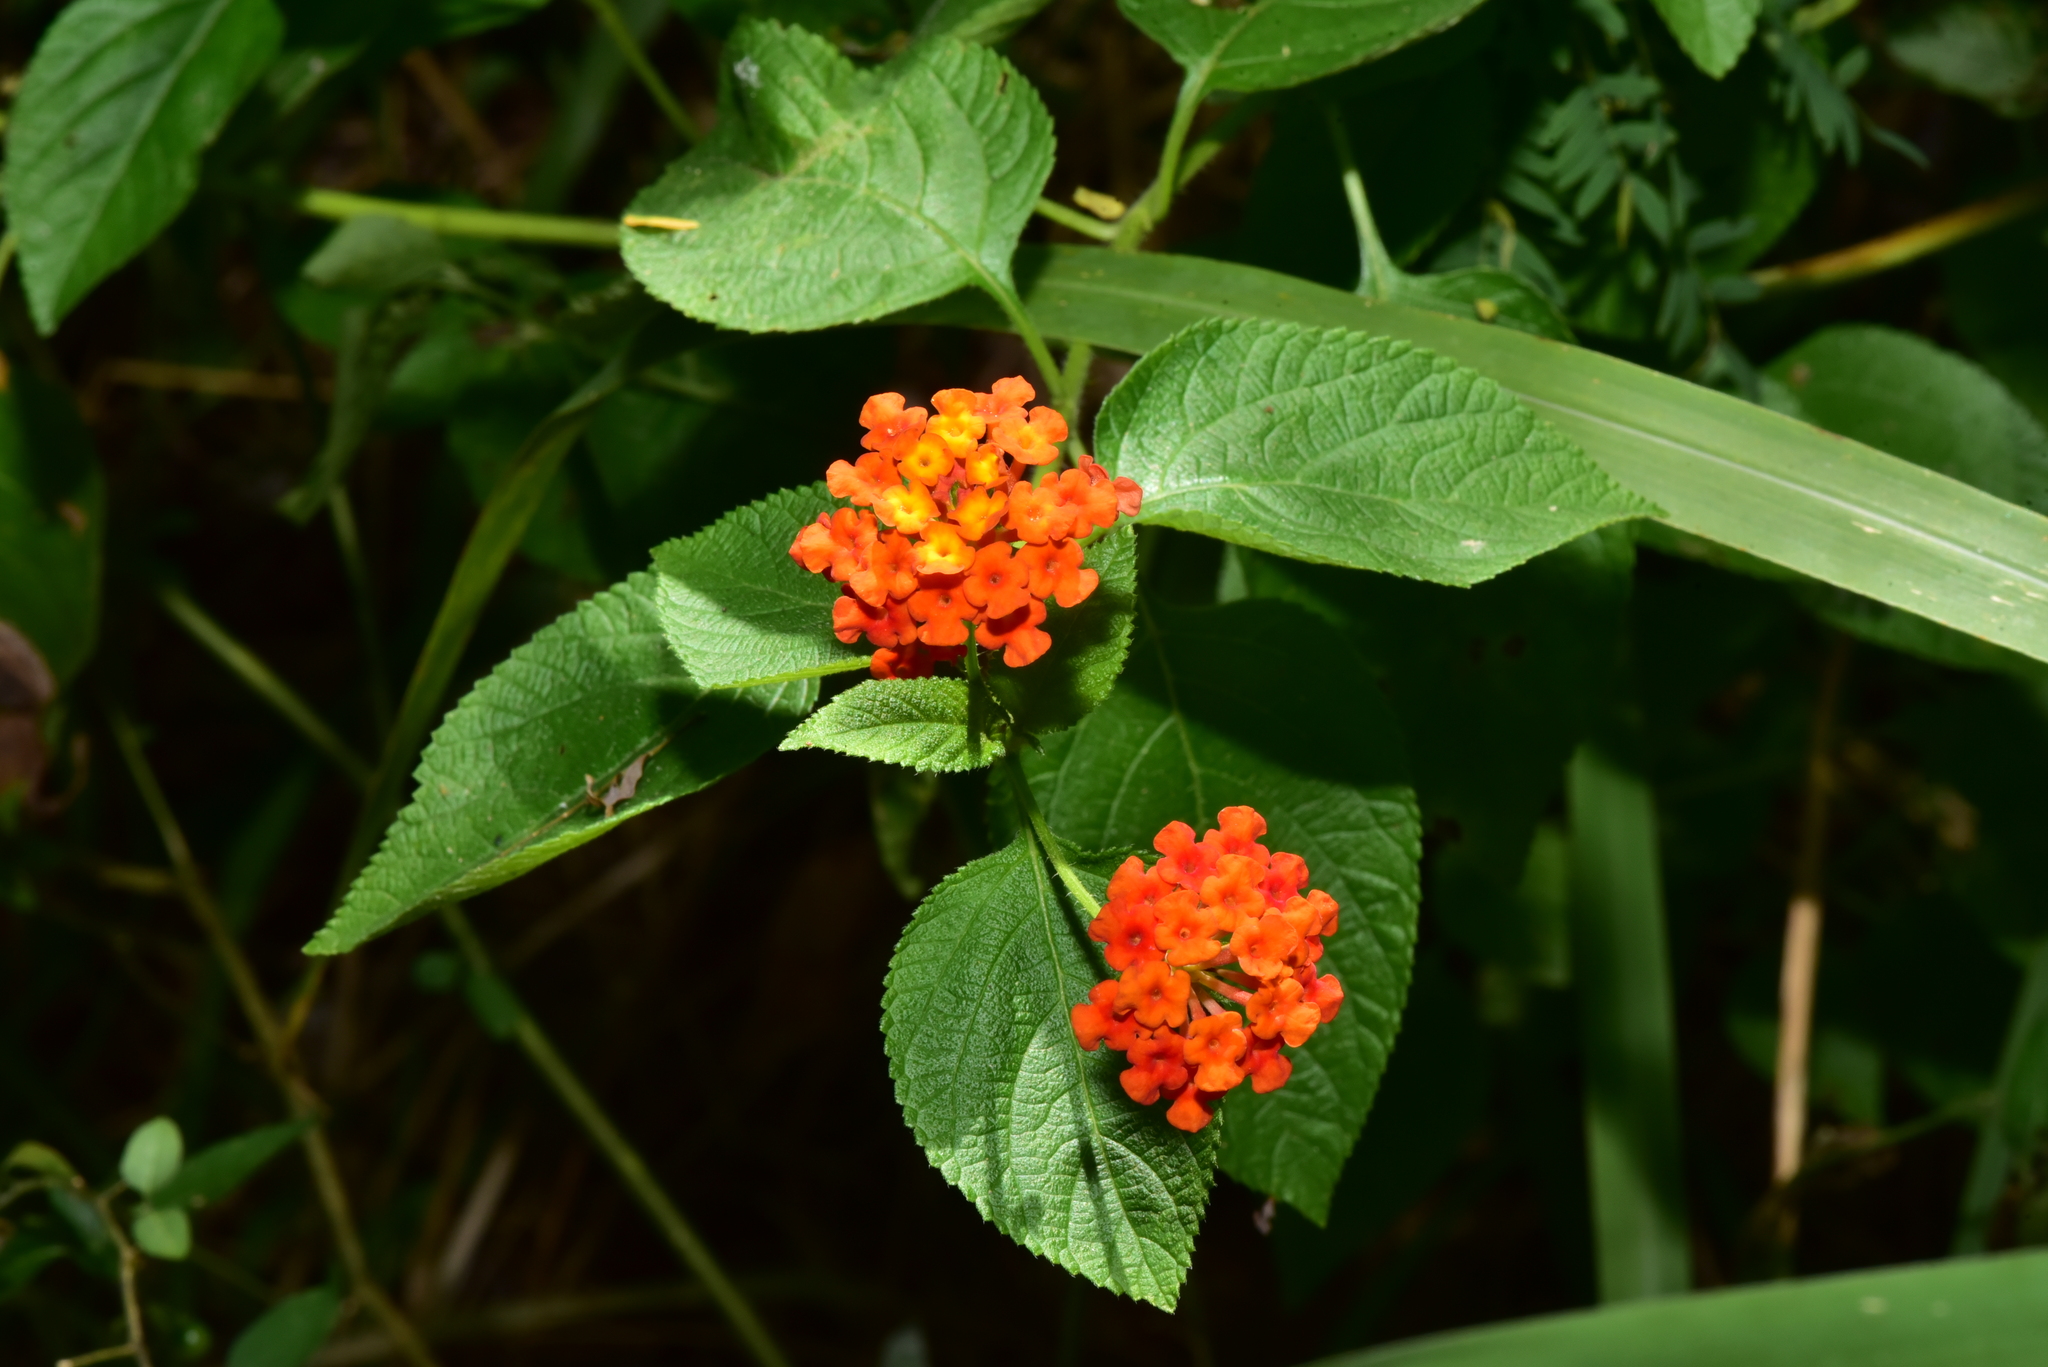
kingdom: Plantae
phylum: Tracheophyta
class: Magnoliopsida
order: Lamiales
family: Verbenaceae
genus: Lantana
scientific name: Lantana camara
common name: Lantana
